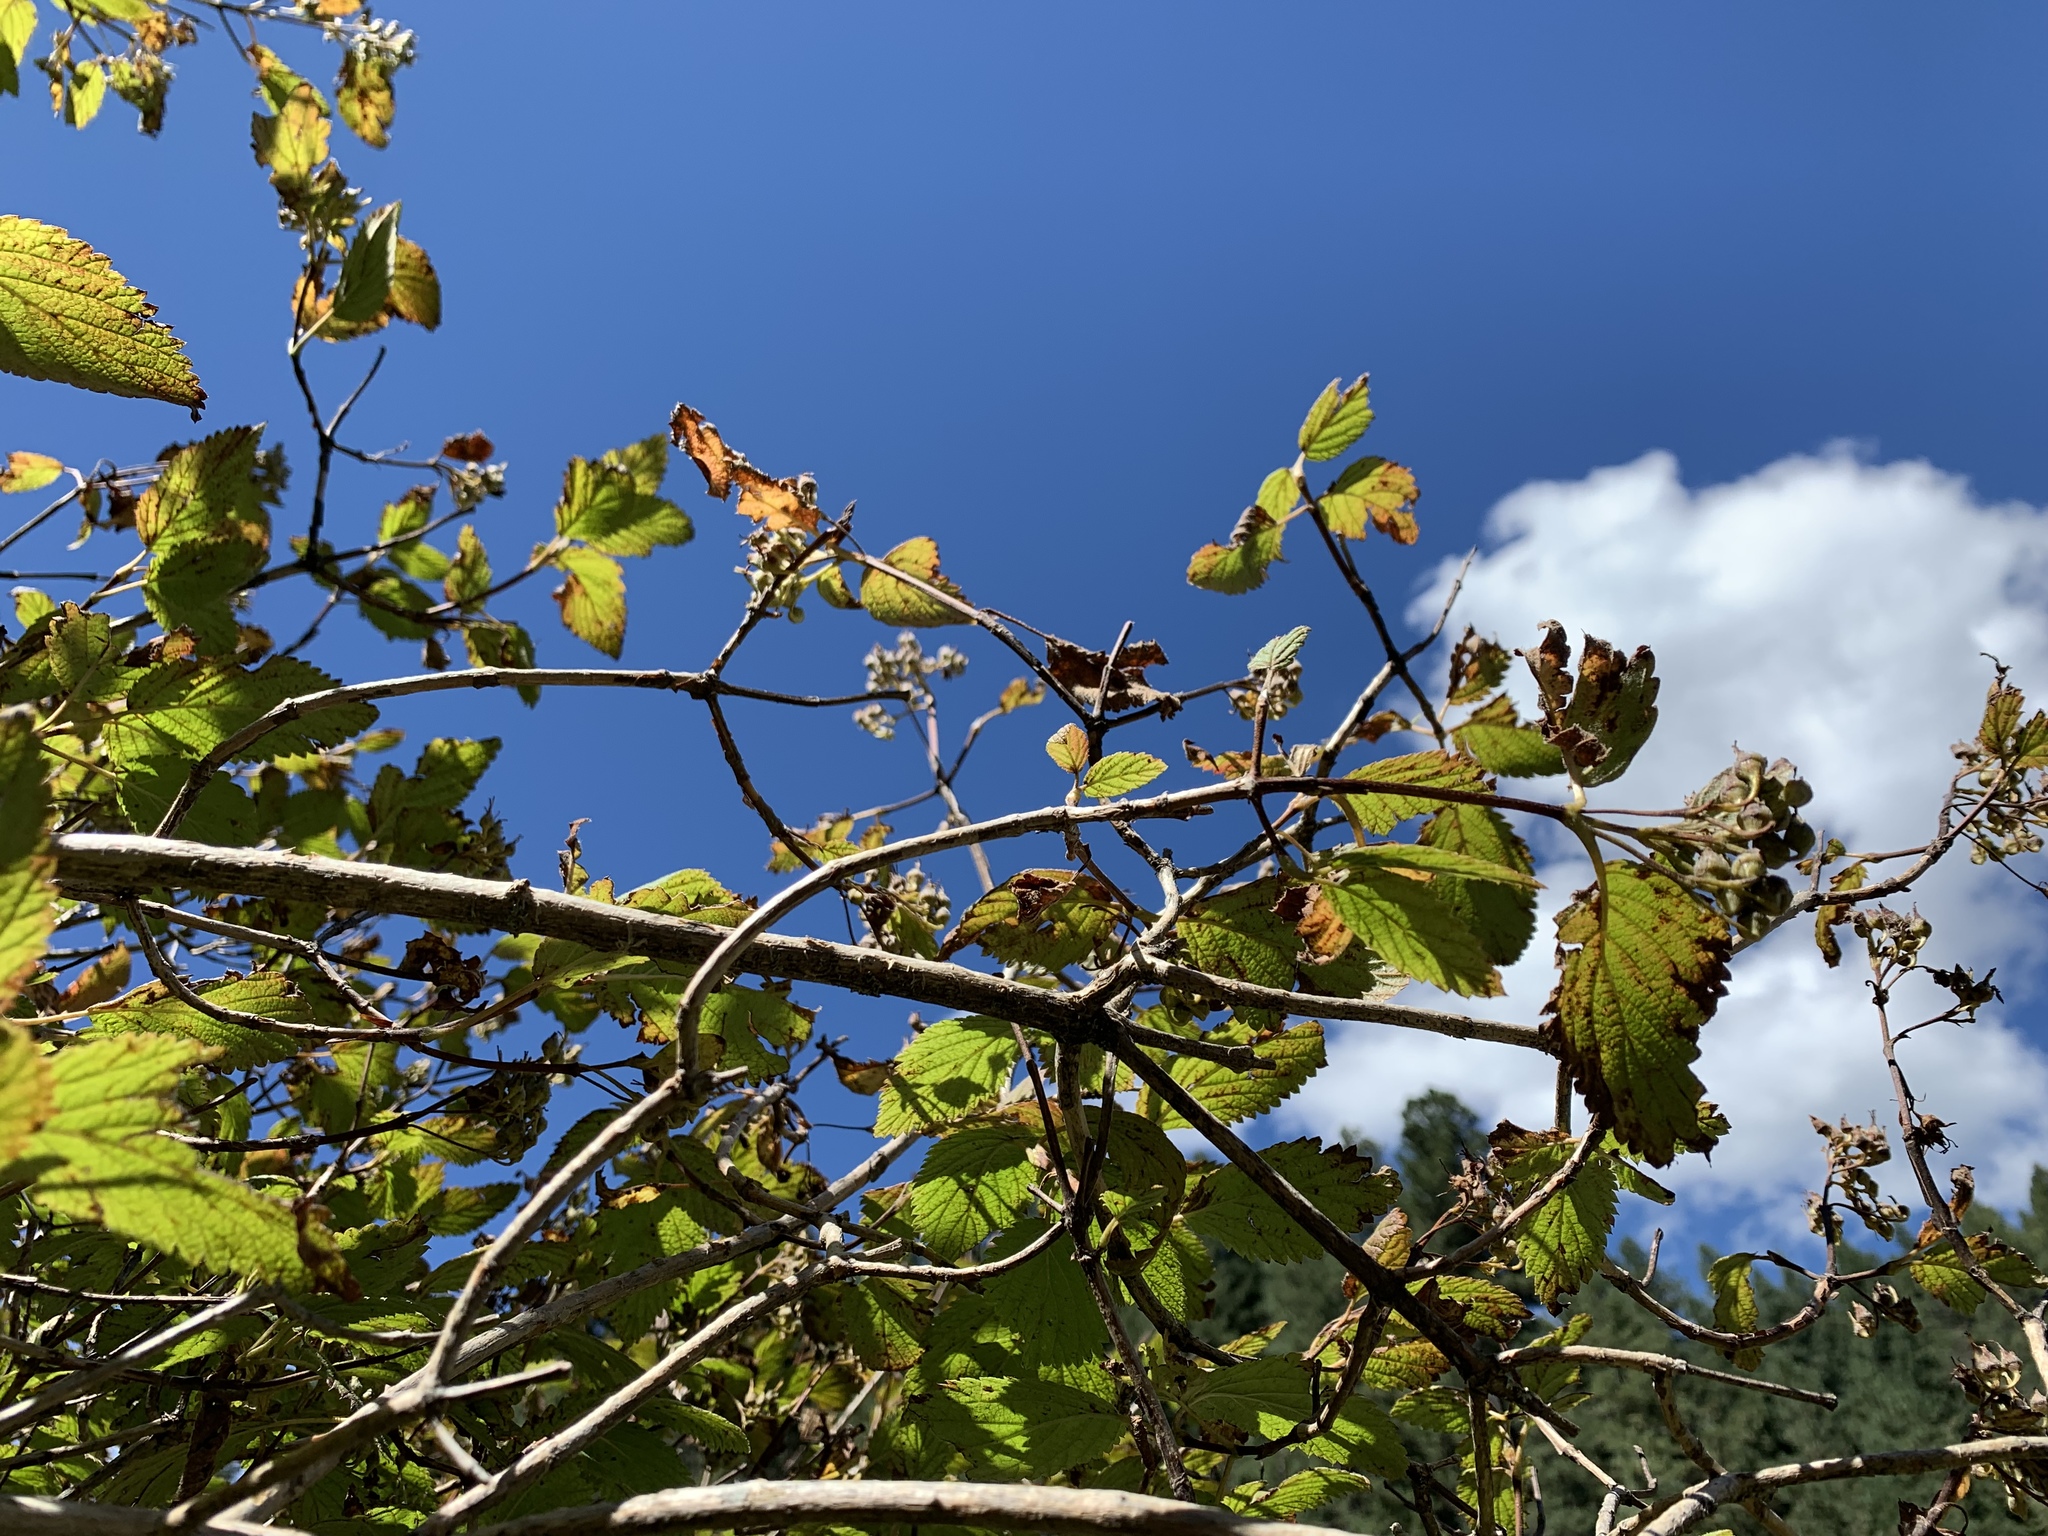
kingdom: Plantae
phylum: Tracheophyta
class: Magnoliopsida
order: Cornales
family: Hydrangeaceae
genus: Jamesia
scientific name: Jamesia americana
